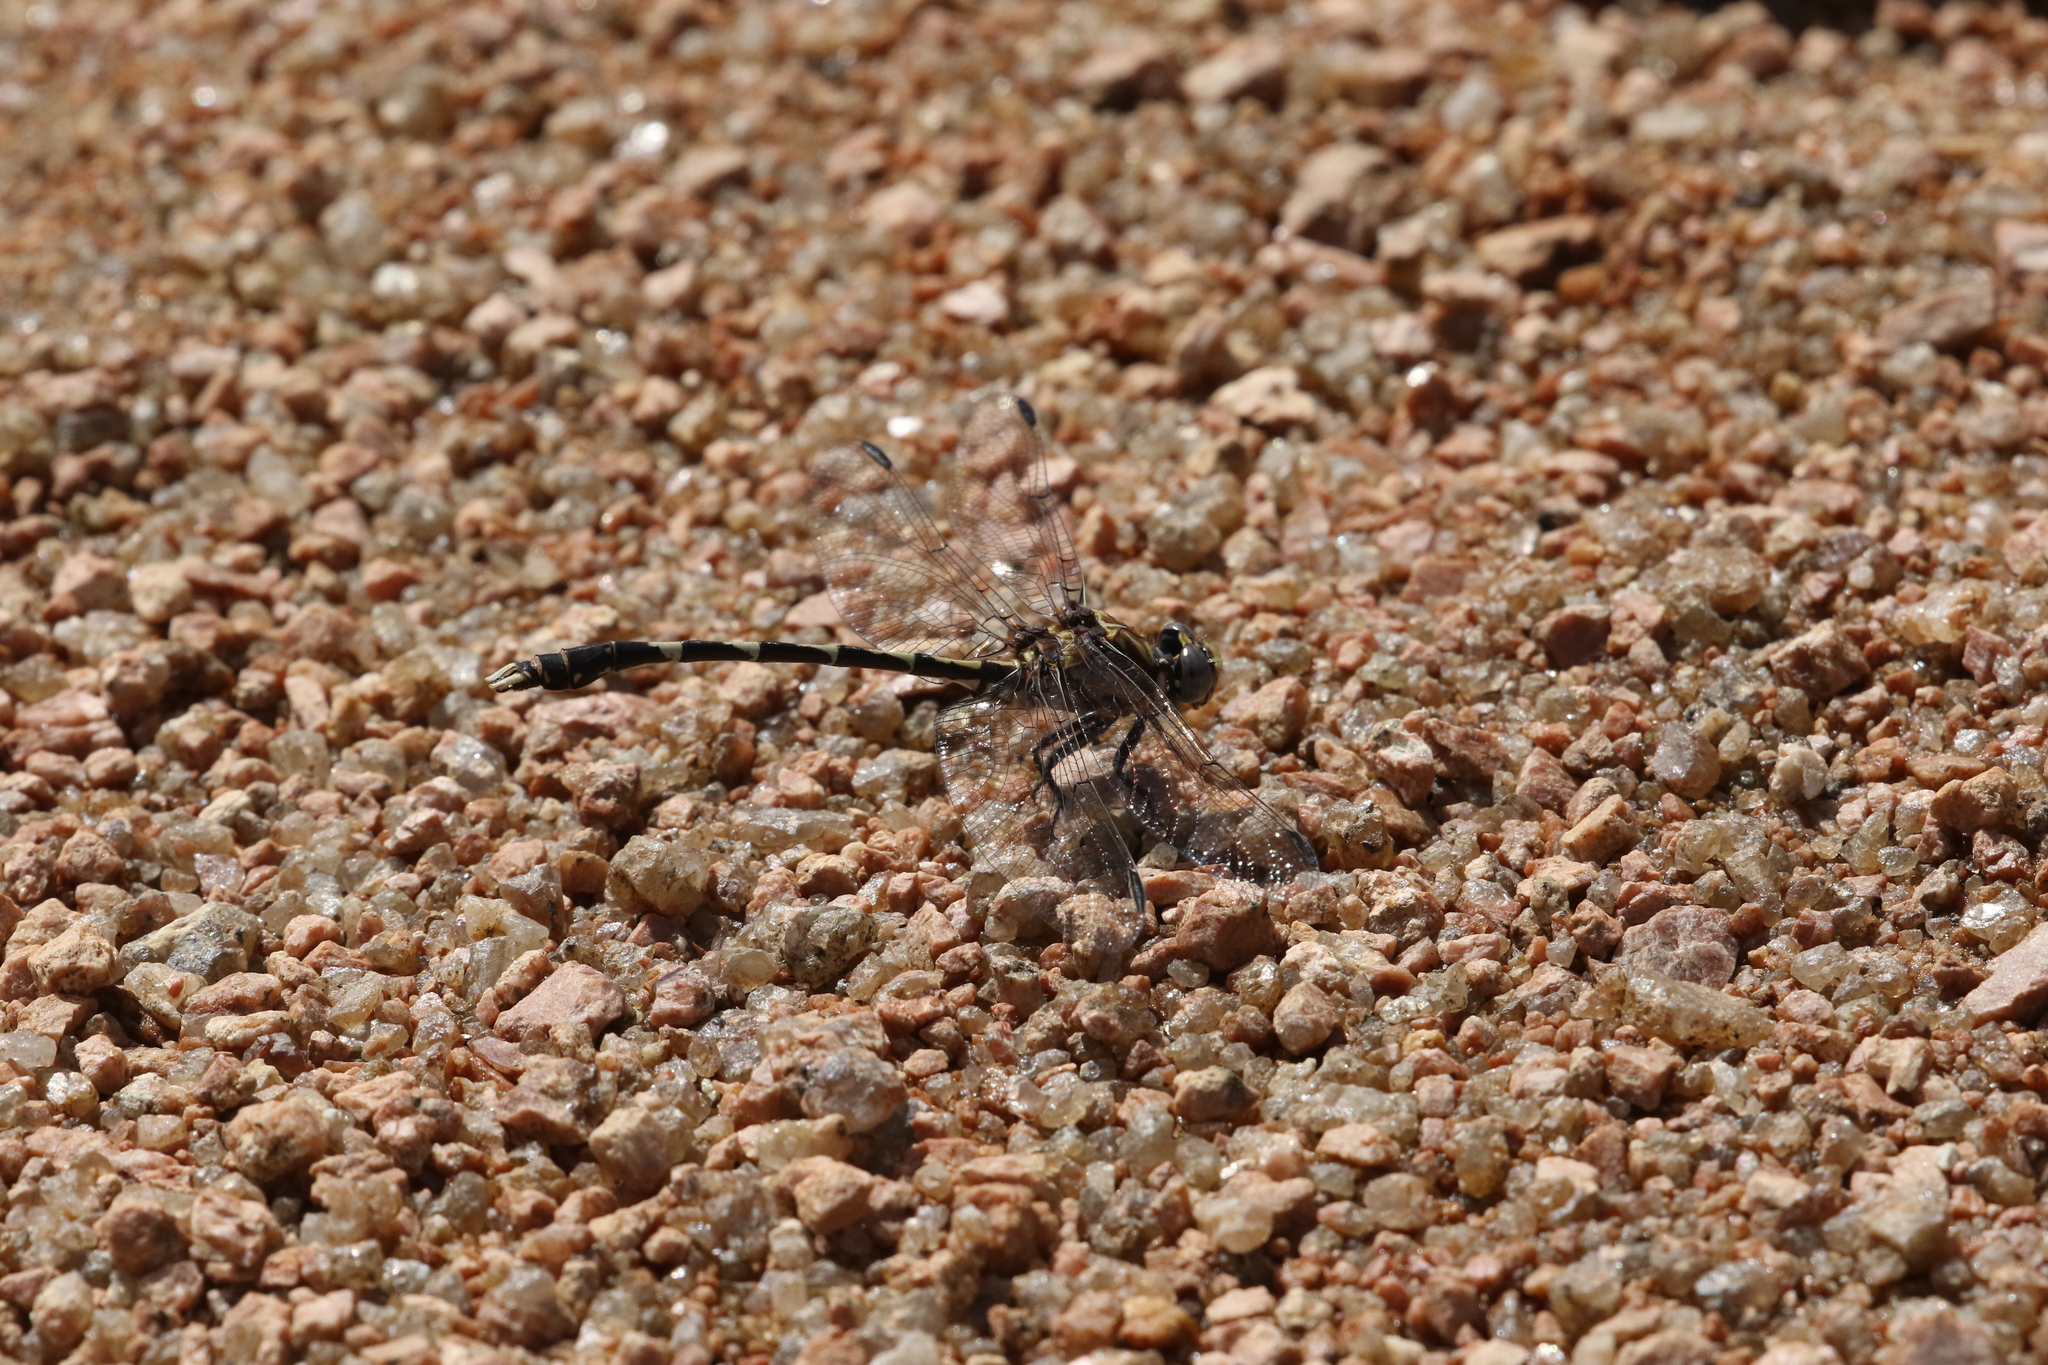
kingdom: Animalia
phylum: Arthropoda
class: Insecta
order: Odonata
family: Gomphidae
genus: Progomphus
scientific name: Progomphus borealis
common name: Gray sanddragon
